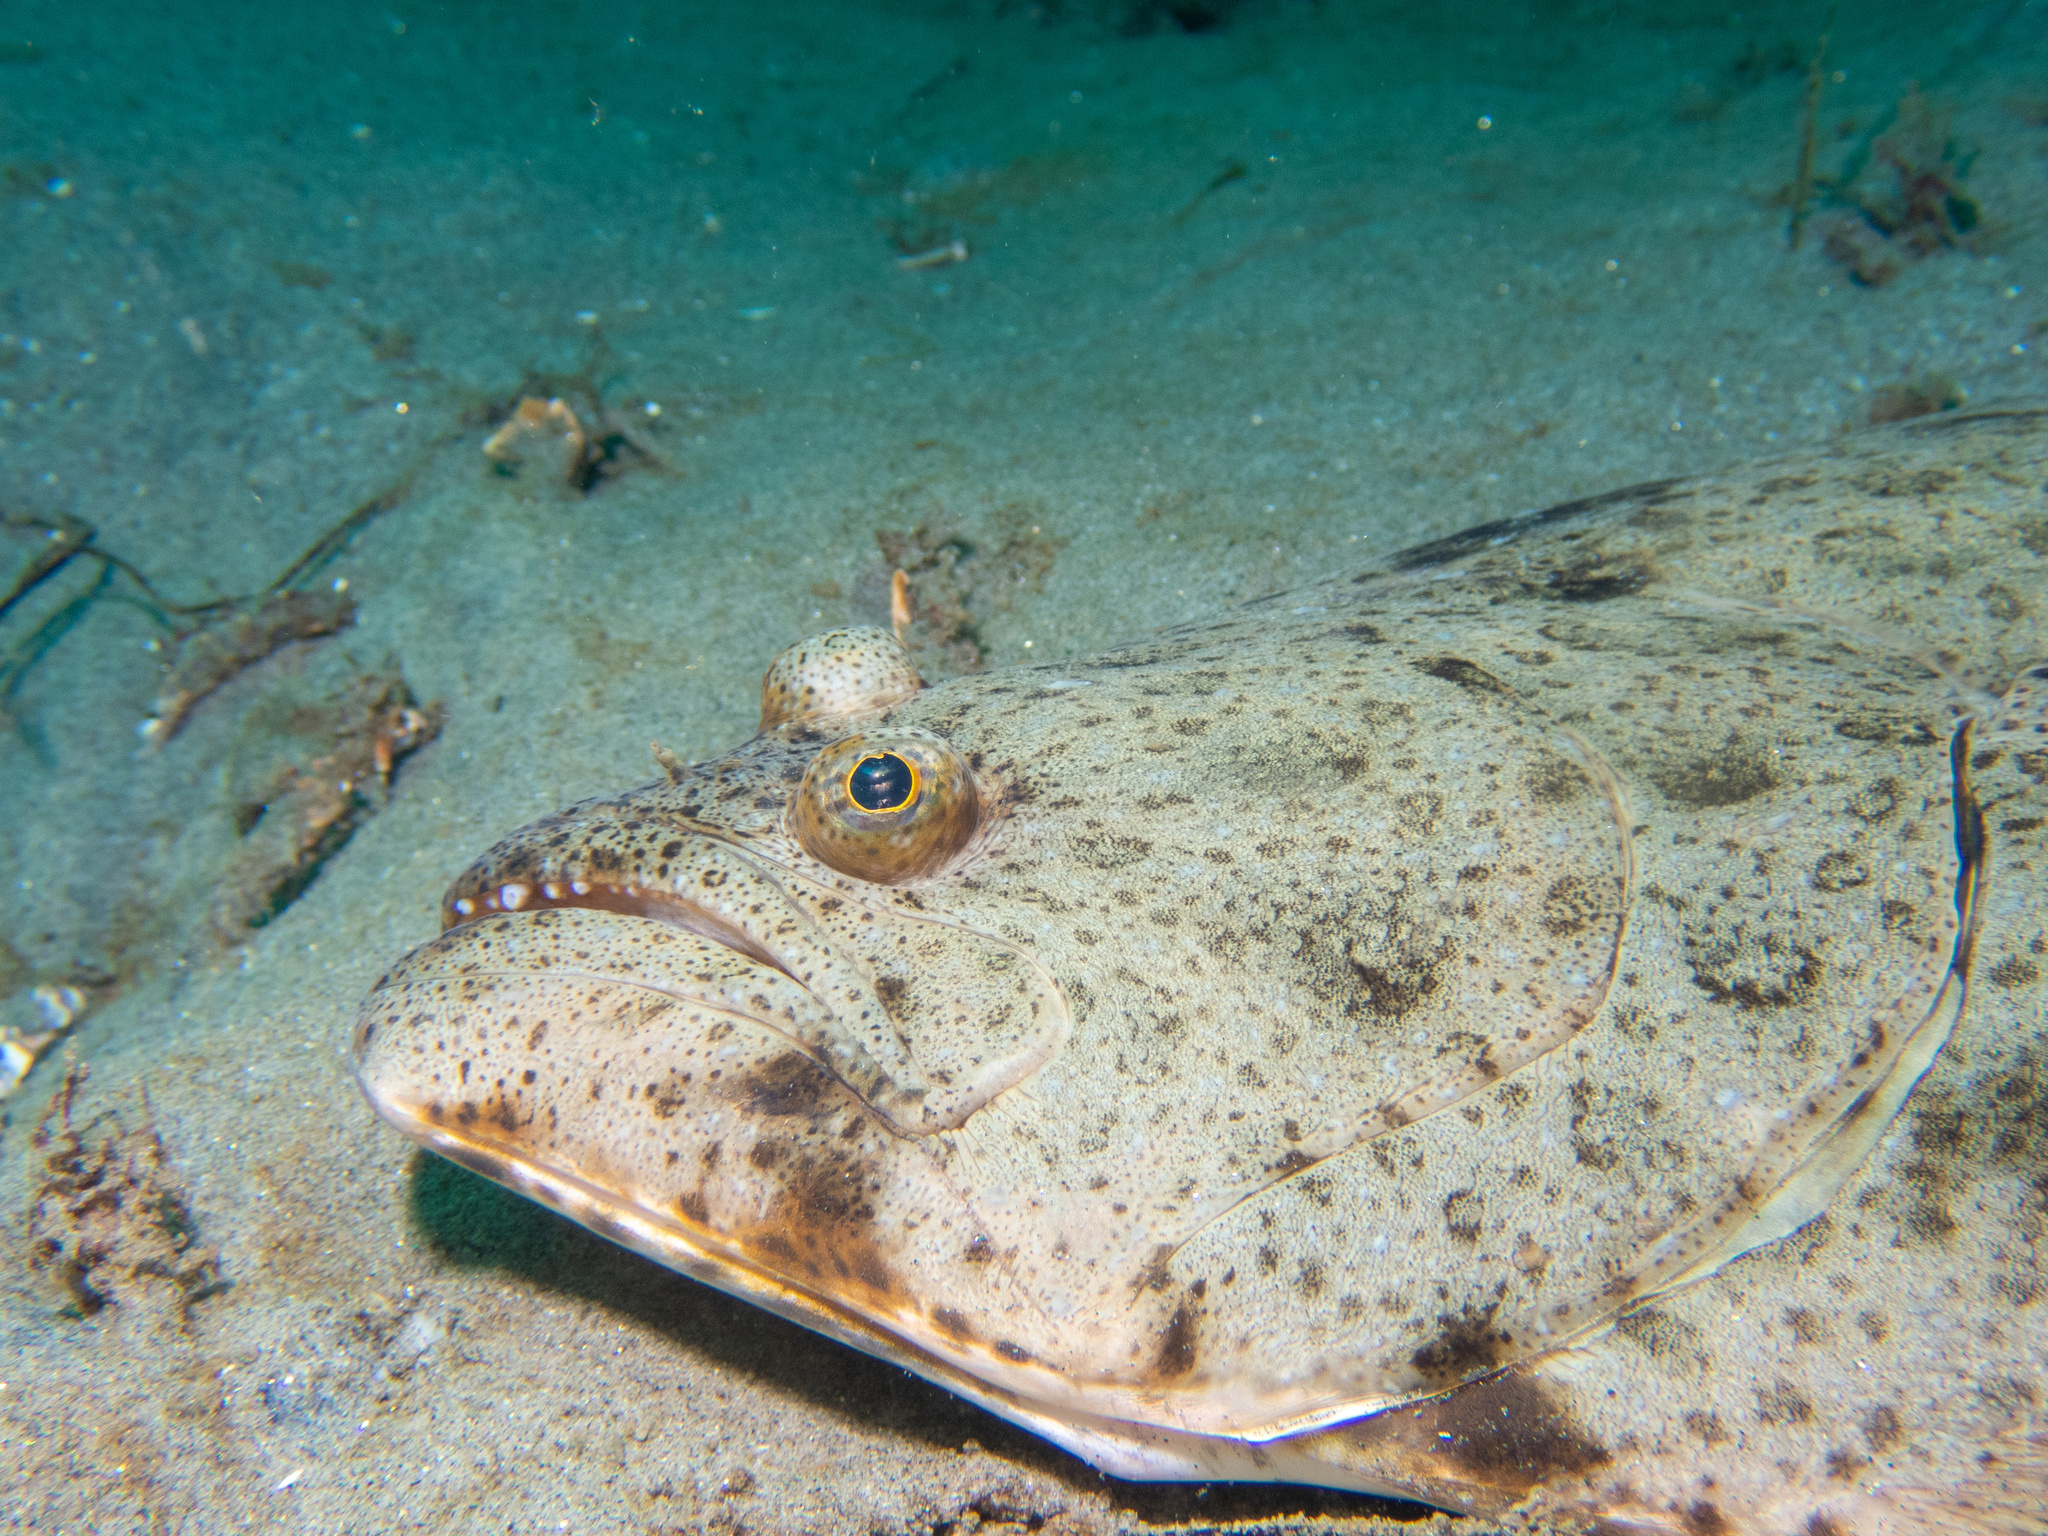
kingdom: Animalia
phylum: Chordata
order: Pleuronectiformes
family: Paralichthyidae
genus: Paralichthys
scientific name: Paralichthys californicus
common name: California halibut
